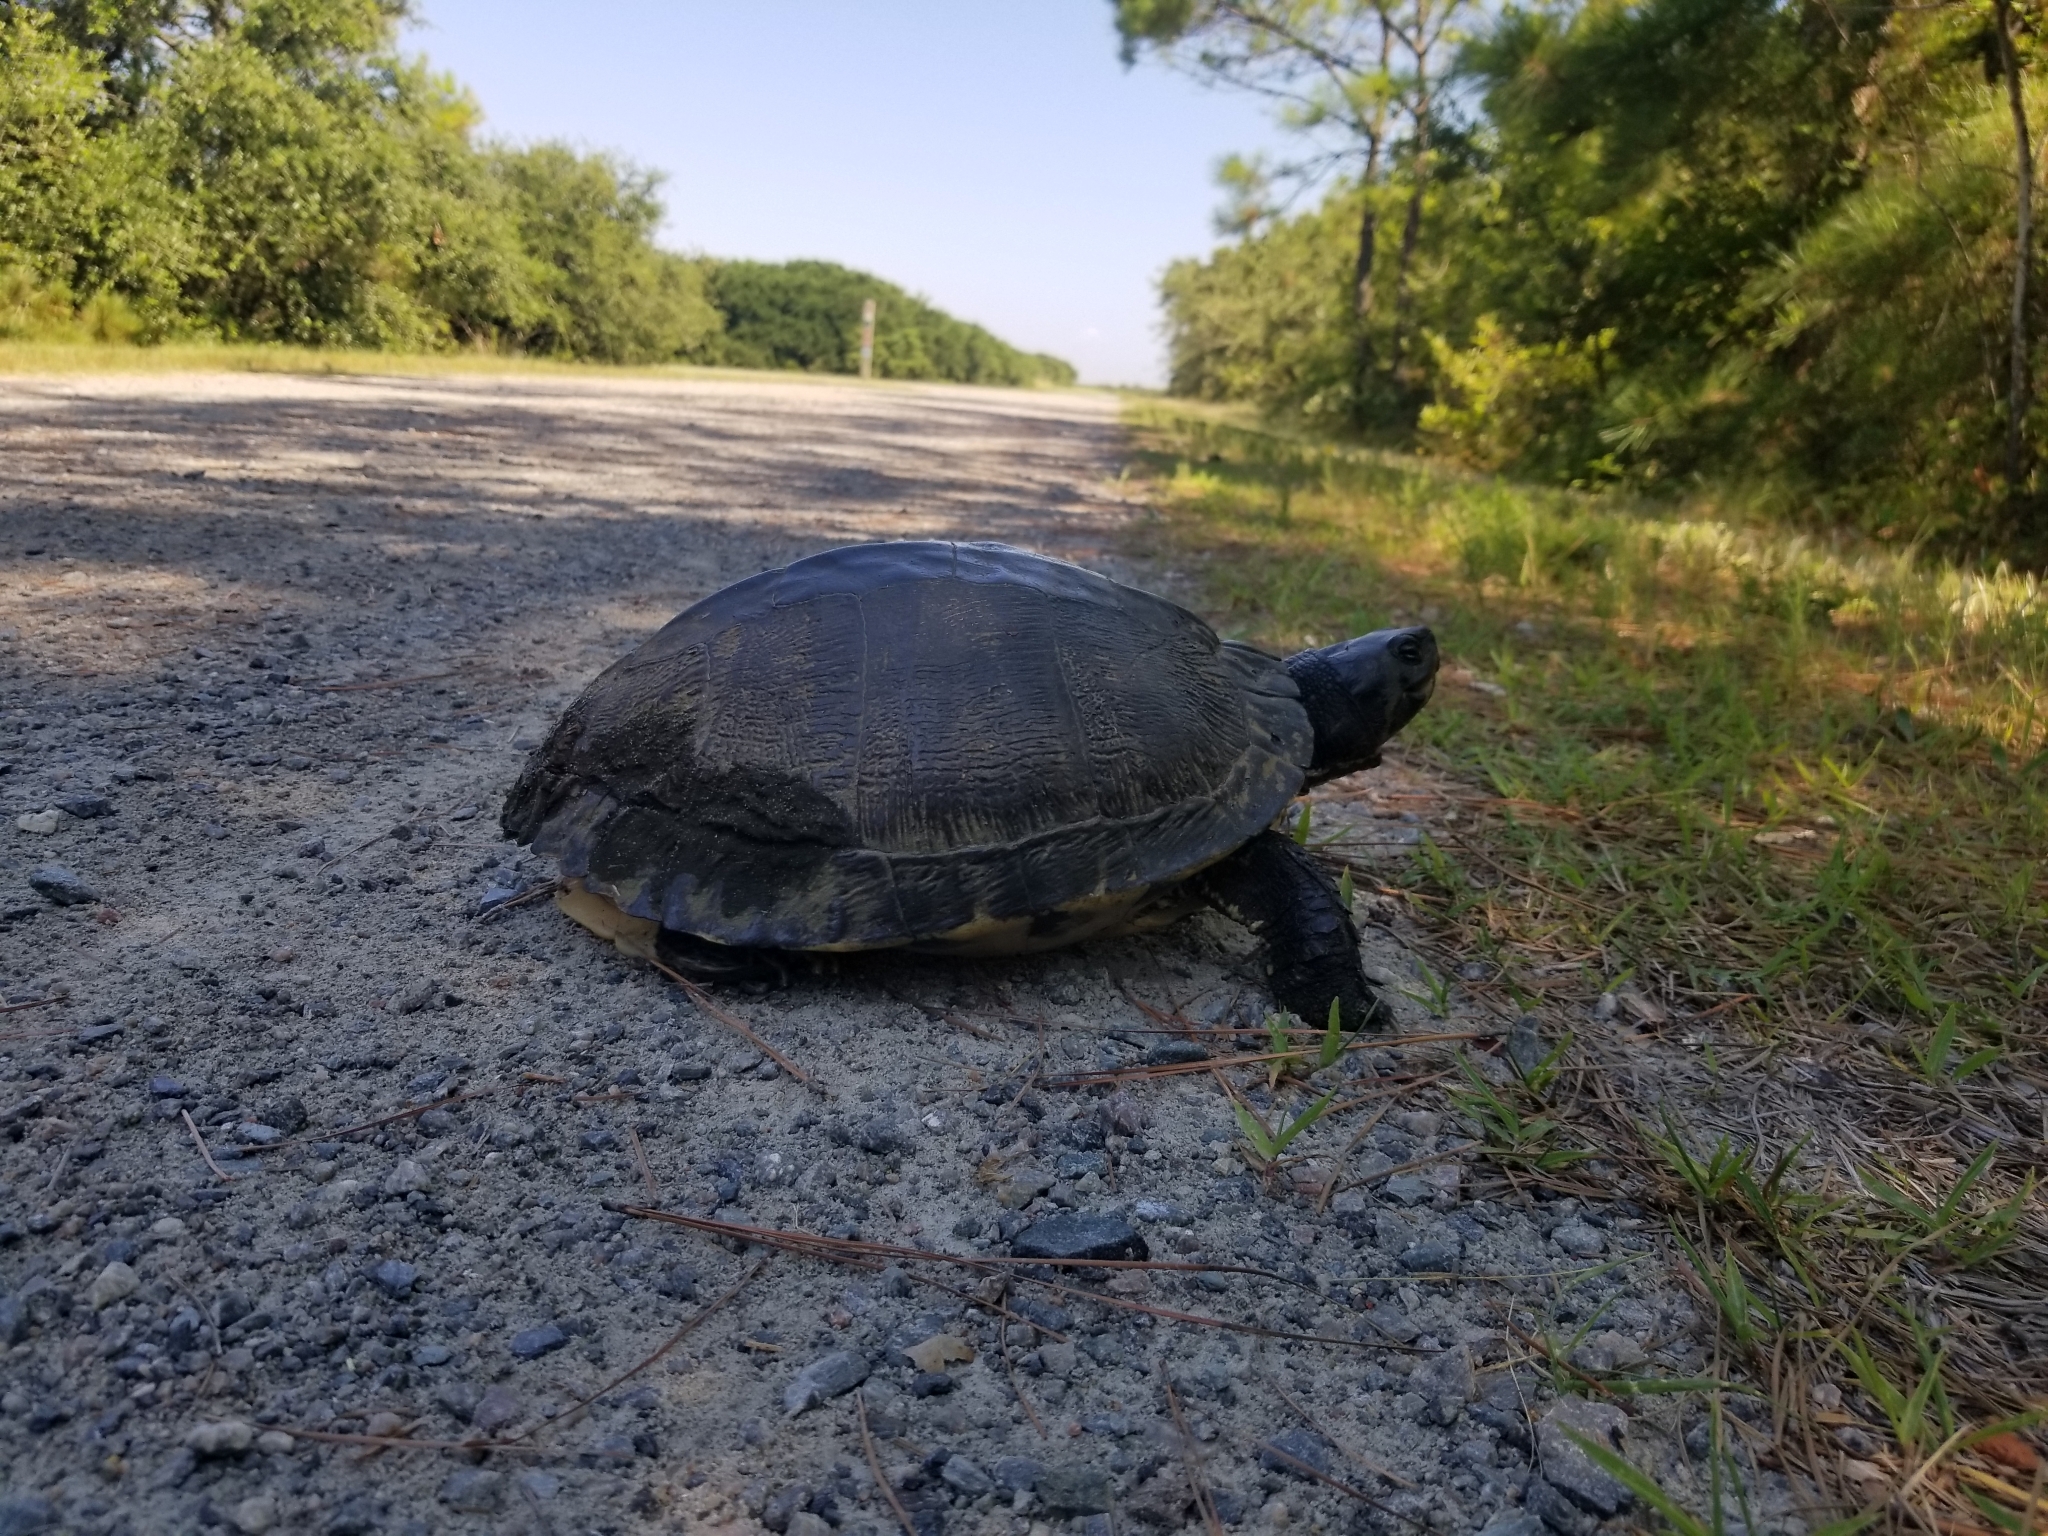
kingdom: Animalia
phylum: Chordata
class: Testudines
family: Emydidae
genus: Trachemys
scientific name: Trachemys scripta
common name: Slider
